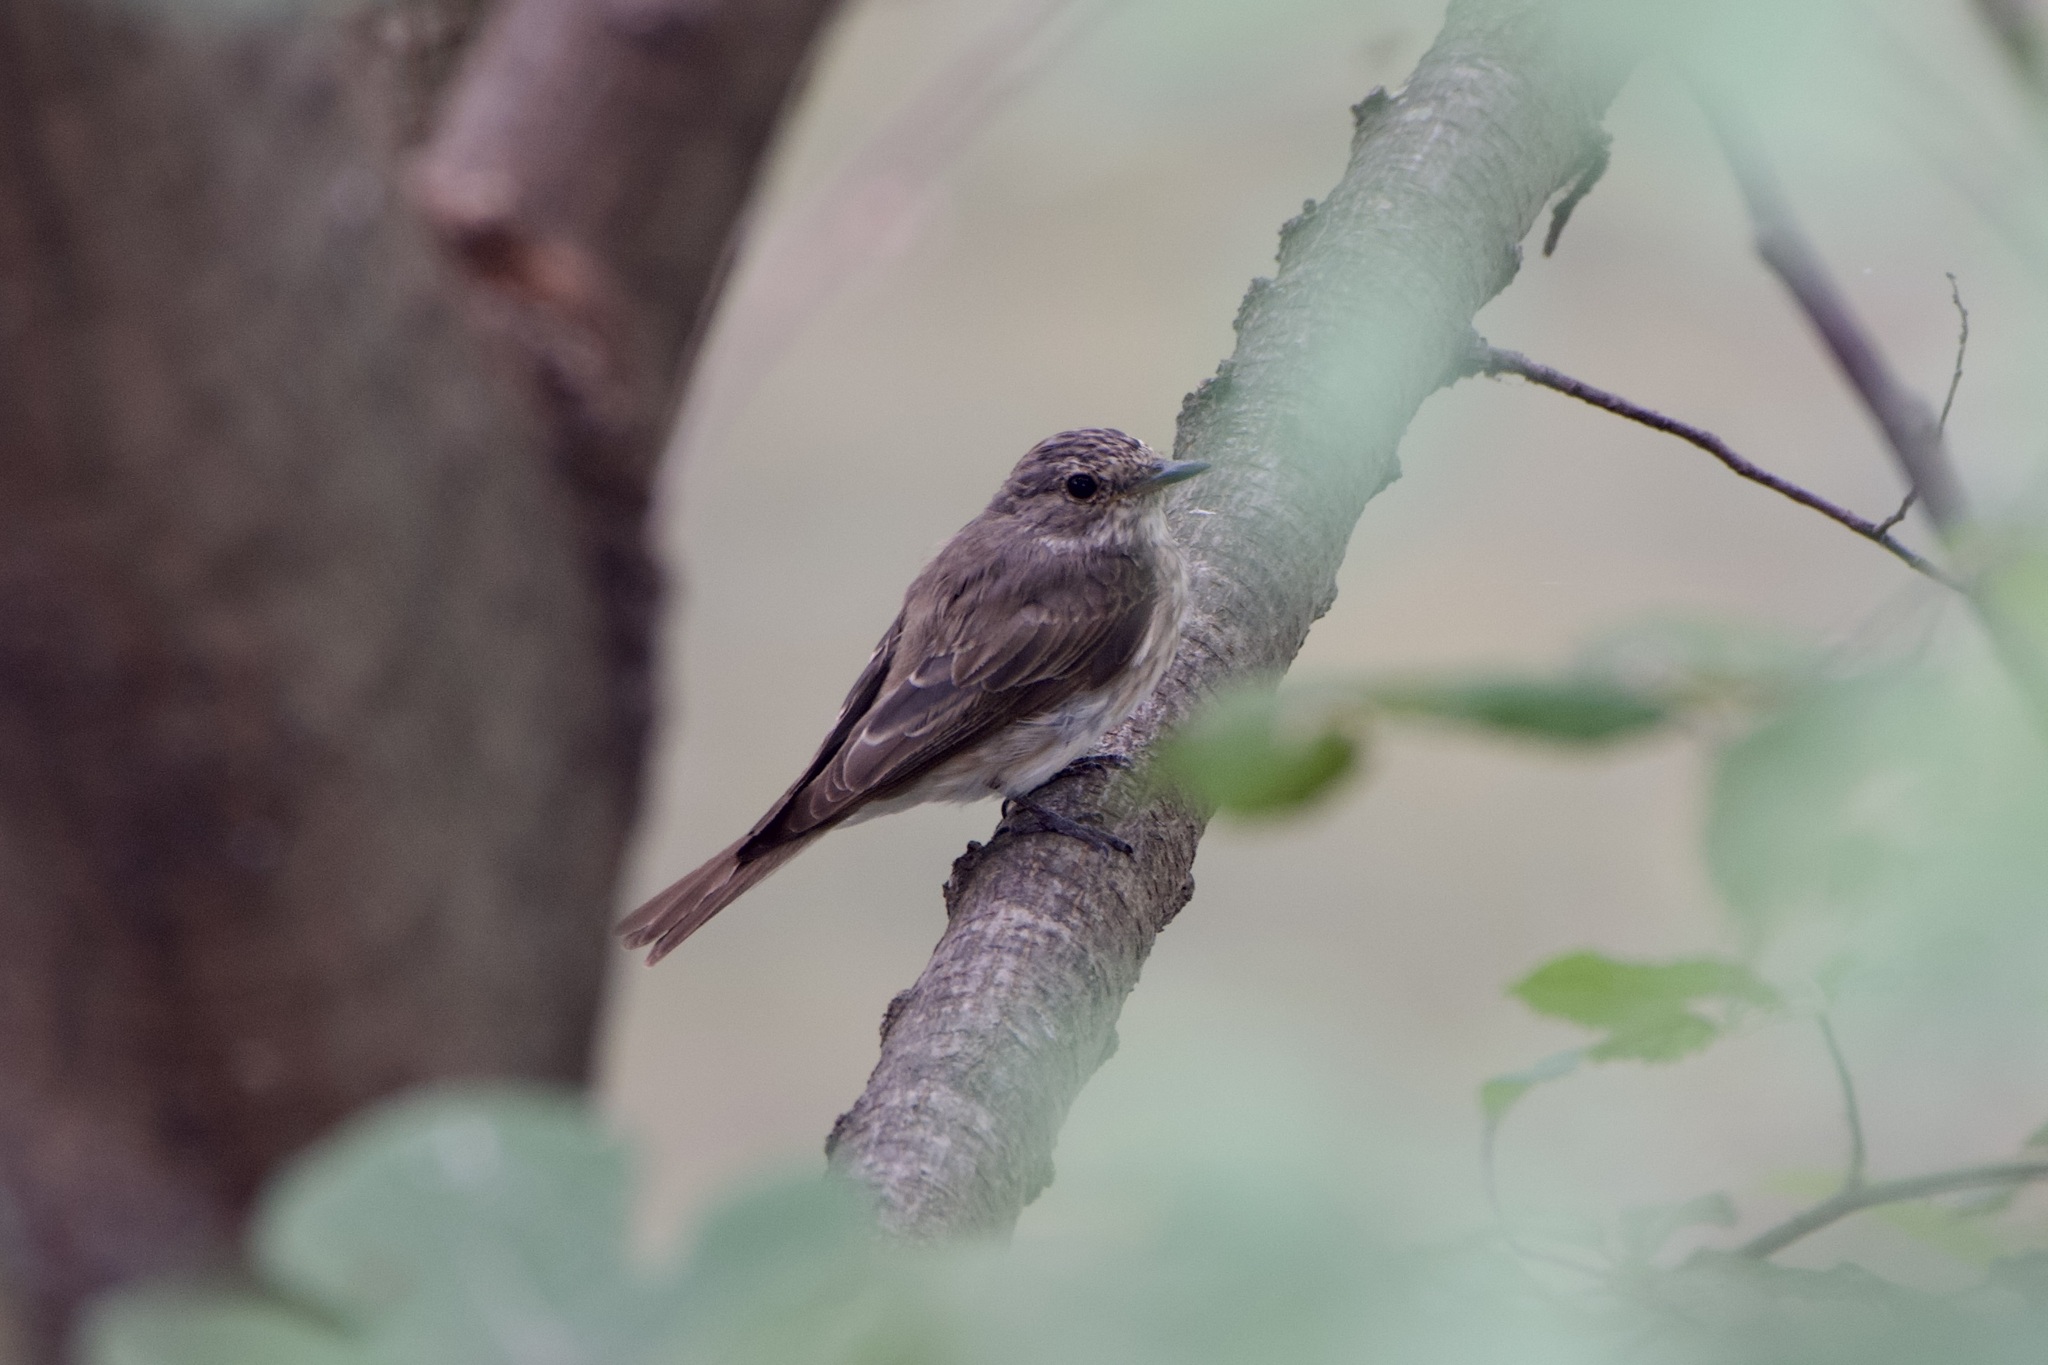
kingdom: Animalia
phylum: Chordata
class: Aves
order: Passeriformes
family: Muscicapidae
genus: Muscicapa
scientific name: Muscicapa striata
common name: Spotted flycatcher
